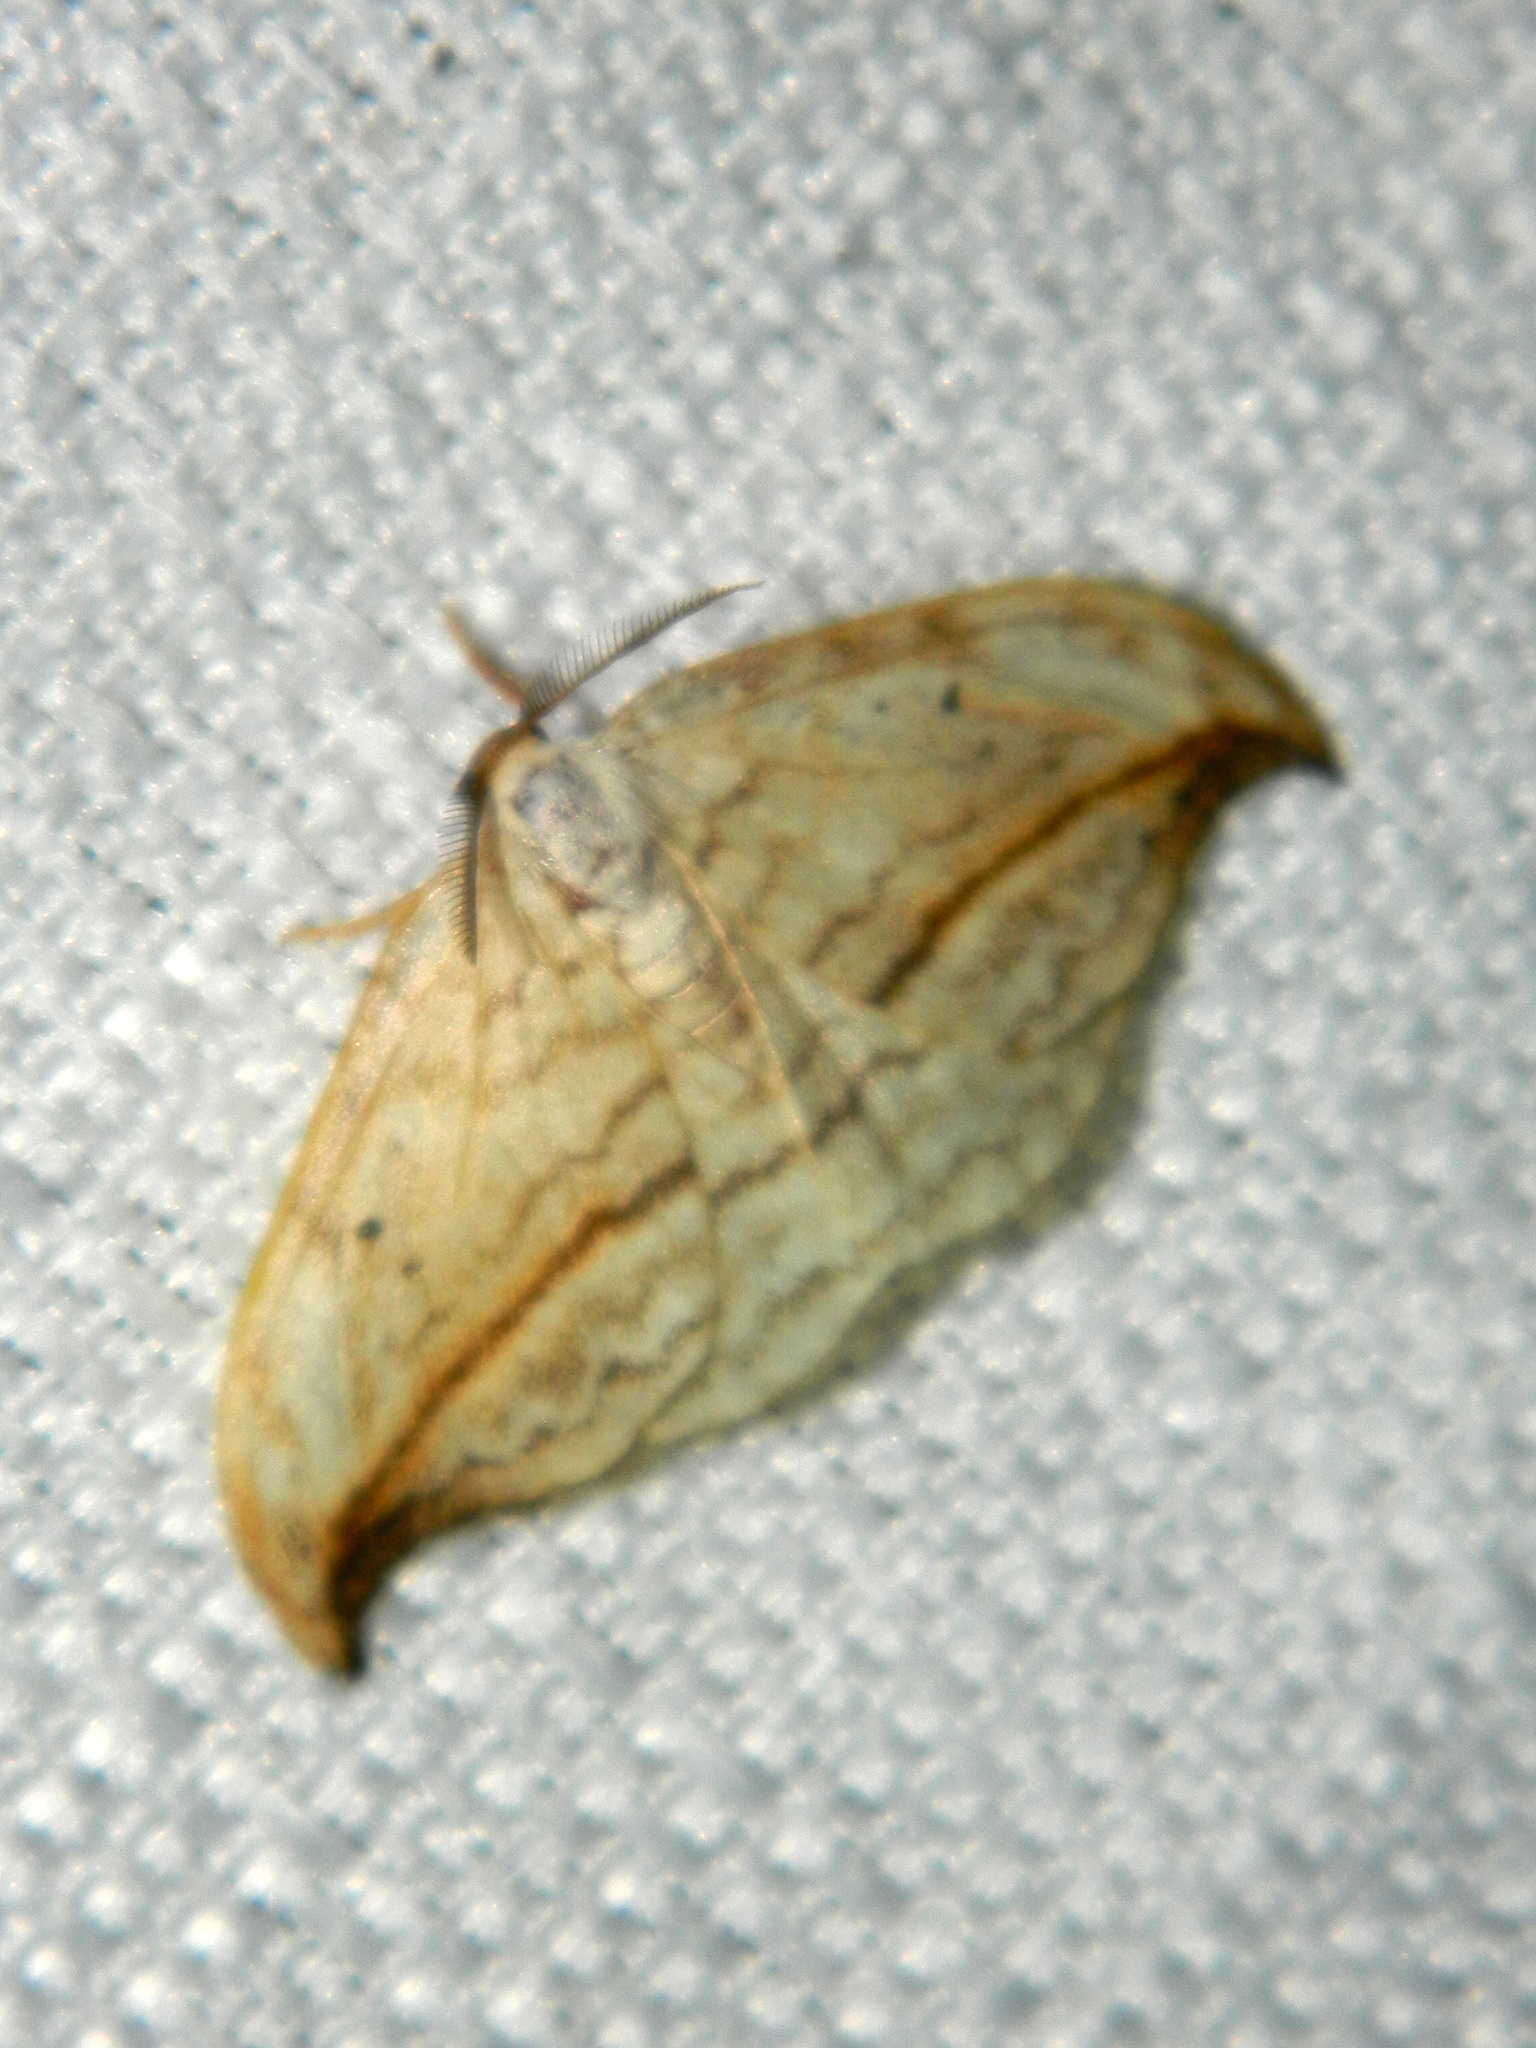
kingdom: Animalia
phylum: Arthropoda
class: Insecta
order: Lepidoptera
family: Drepanidae
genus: Drepana
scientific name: Drepana arcuata
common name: Arched hooktip moth
